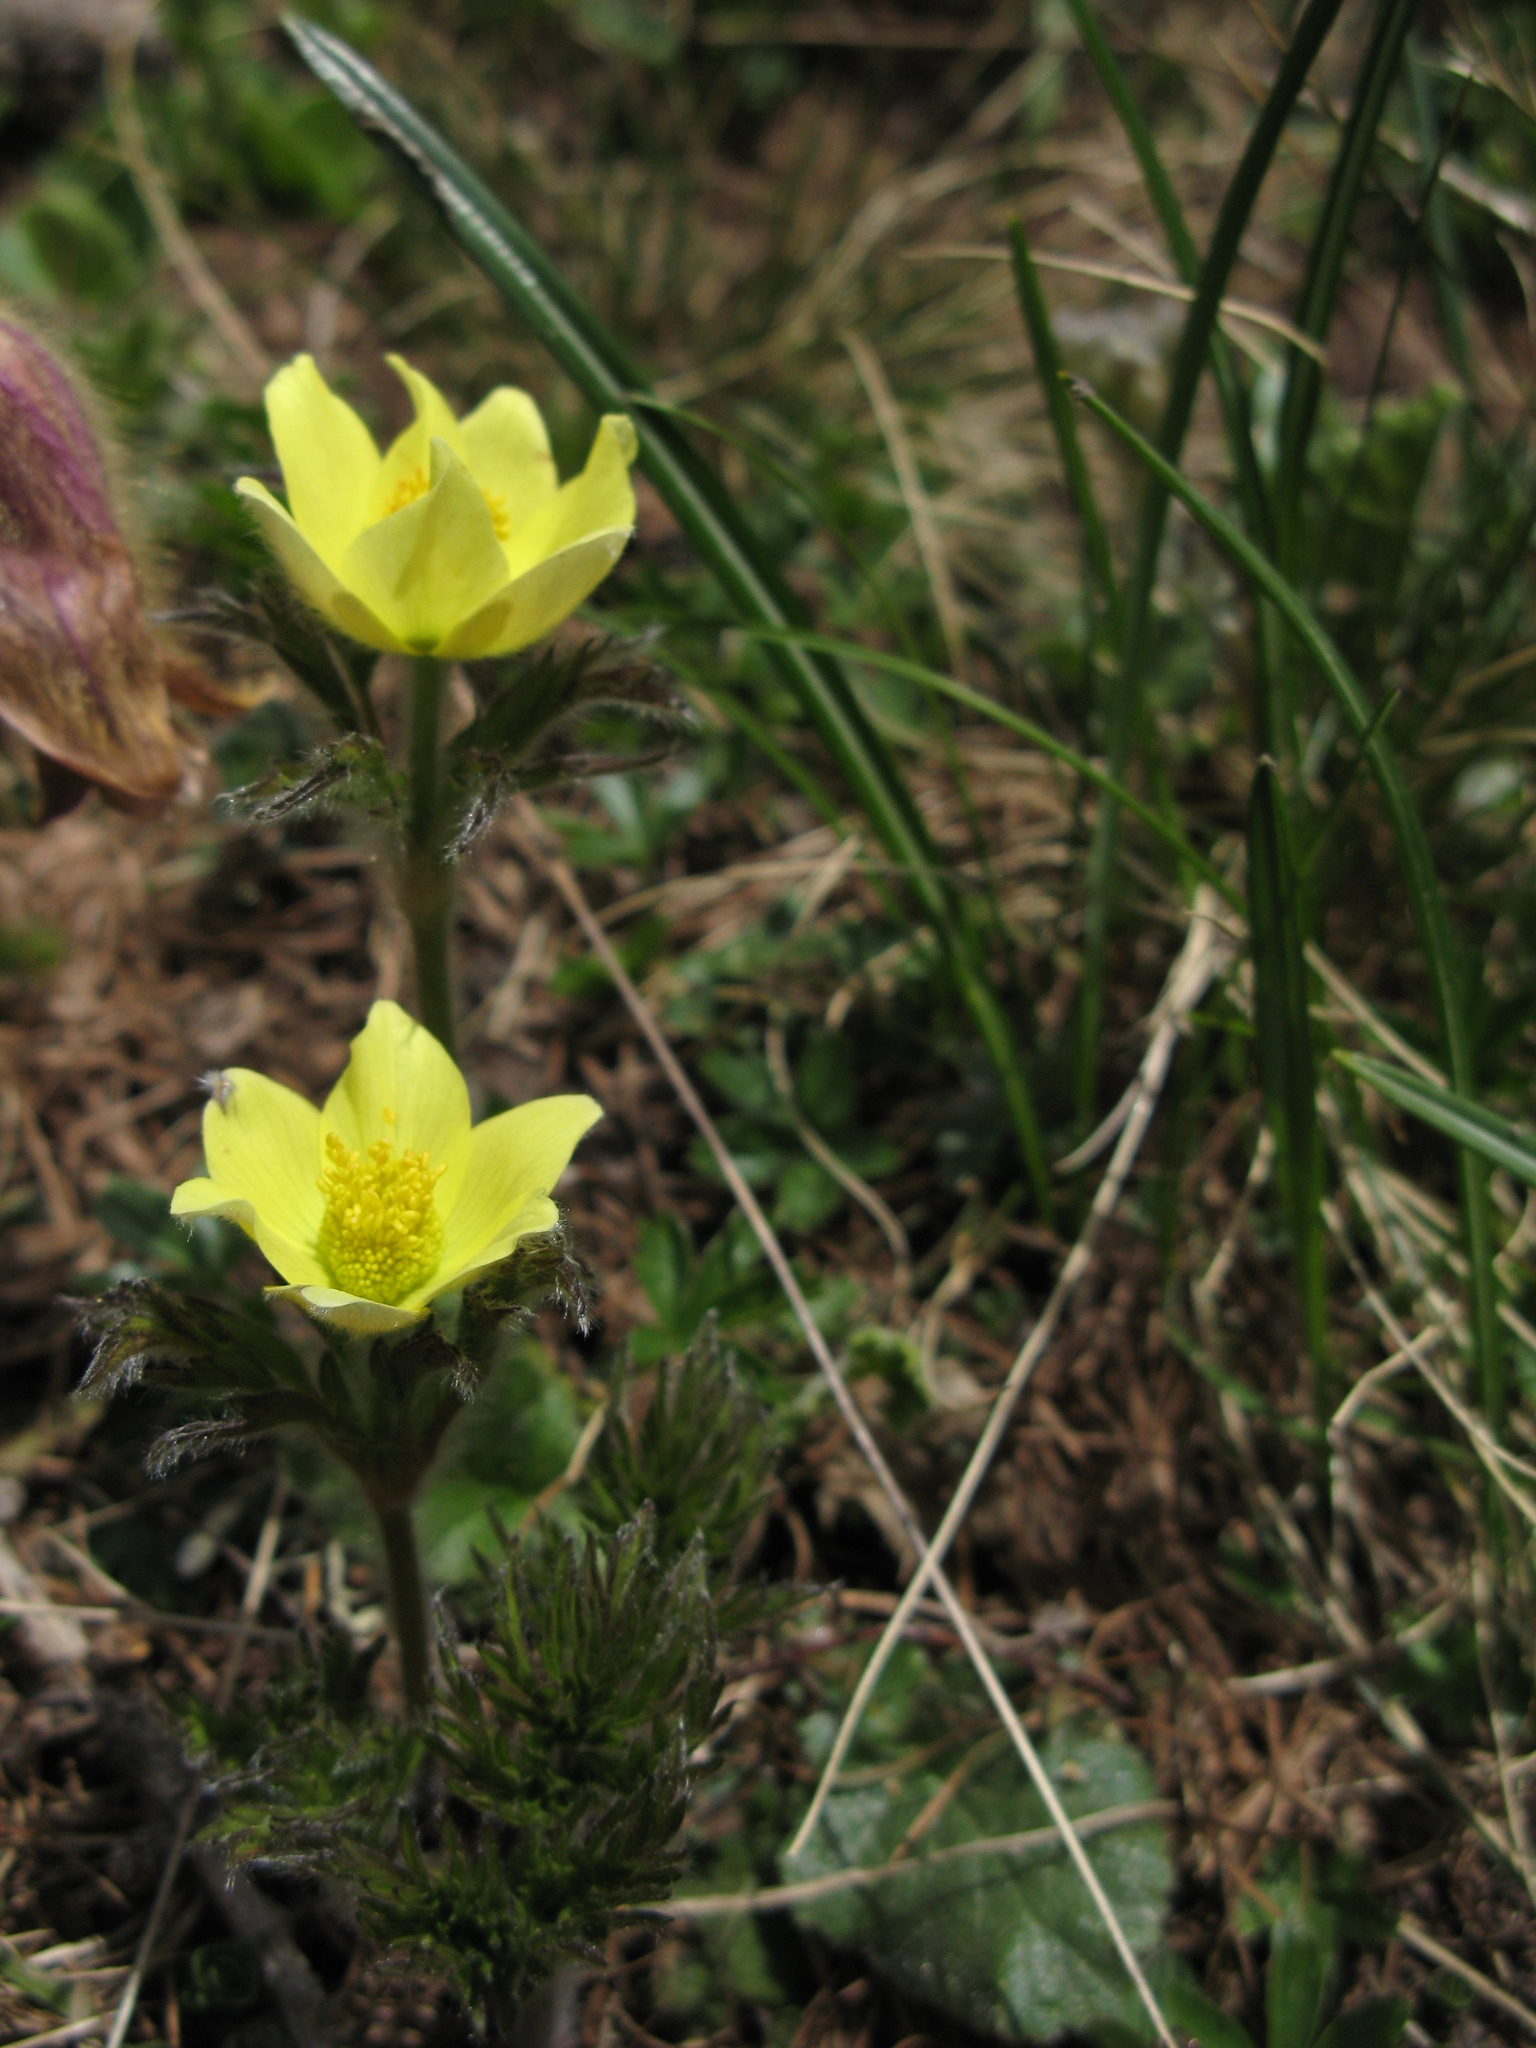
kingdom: Plantae
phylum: Tracheophyta
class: Magnoliopsida
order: Ranunculales
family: Ranunculaceae
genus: Pulsatilla
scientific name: Pulsatilla alpina
